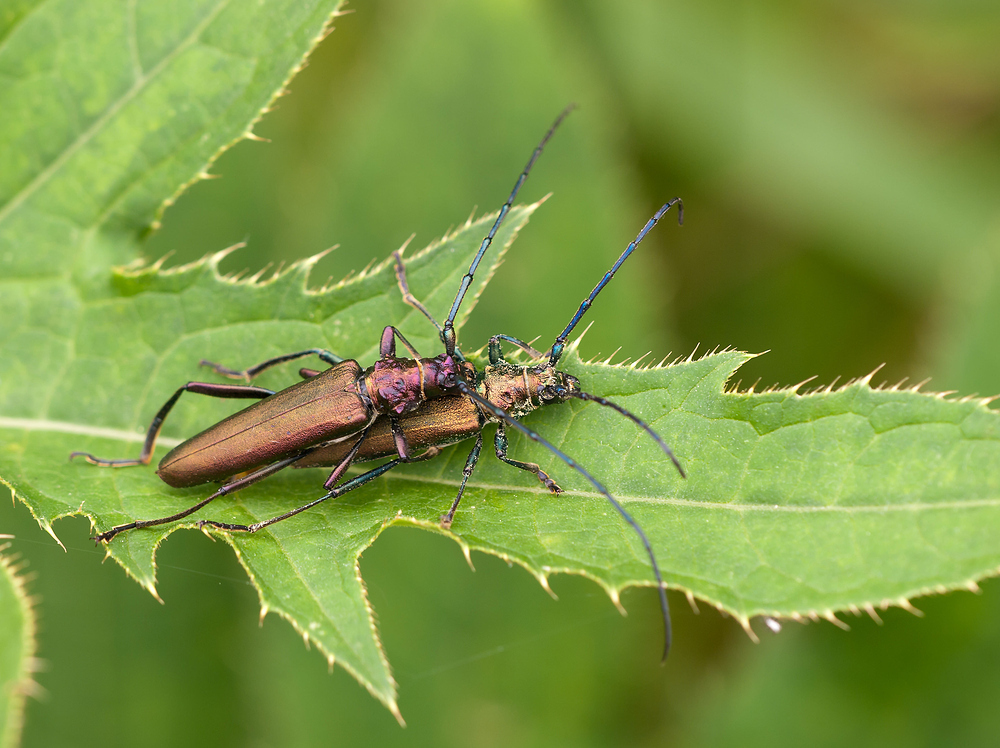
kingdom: Animalia
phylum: Arthropoda
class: Insecta
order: Coleoptera
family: Cerambycidae
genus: Aromia
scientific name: Aromia moschata
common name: Musk beetle
